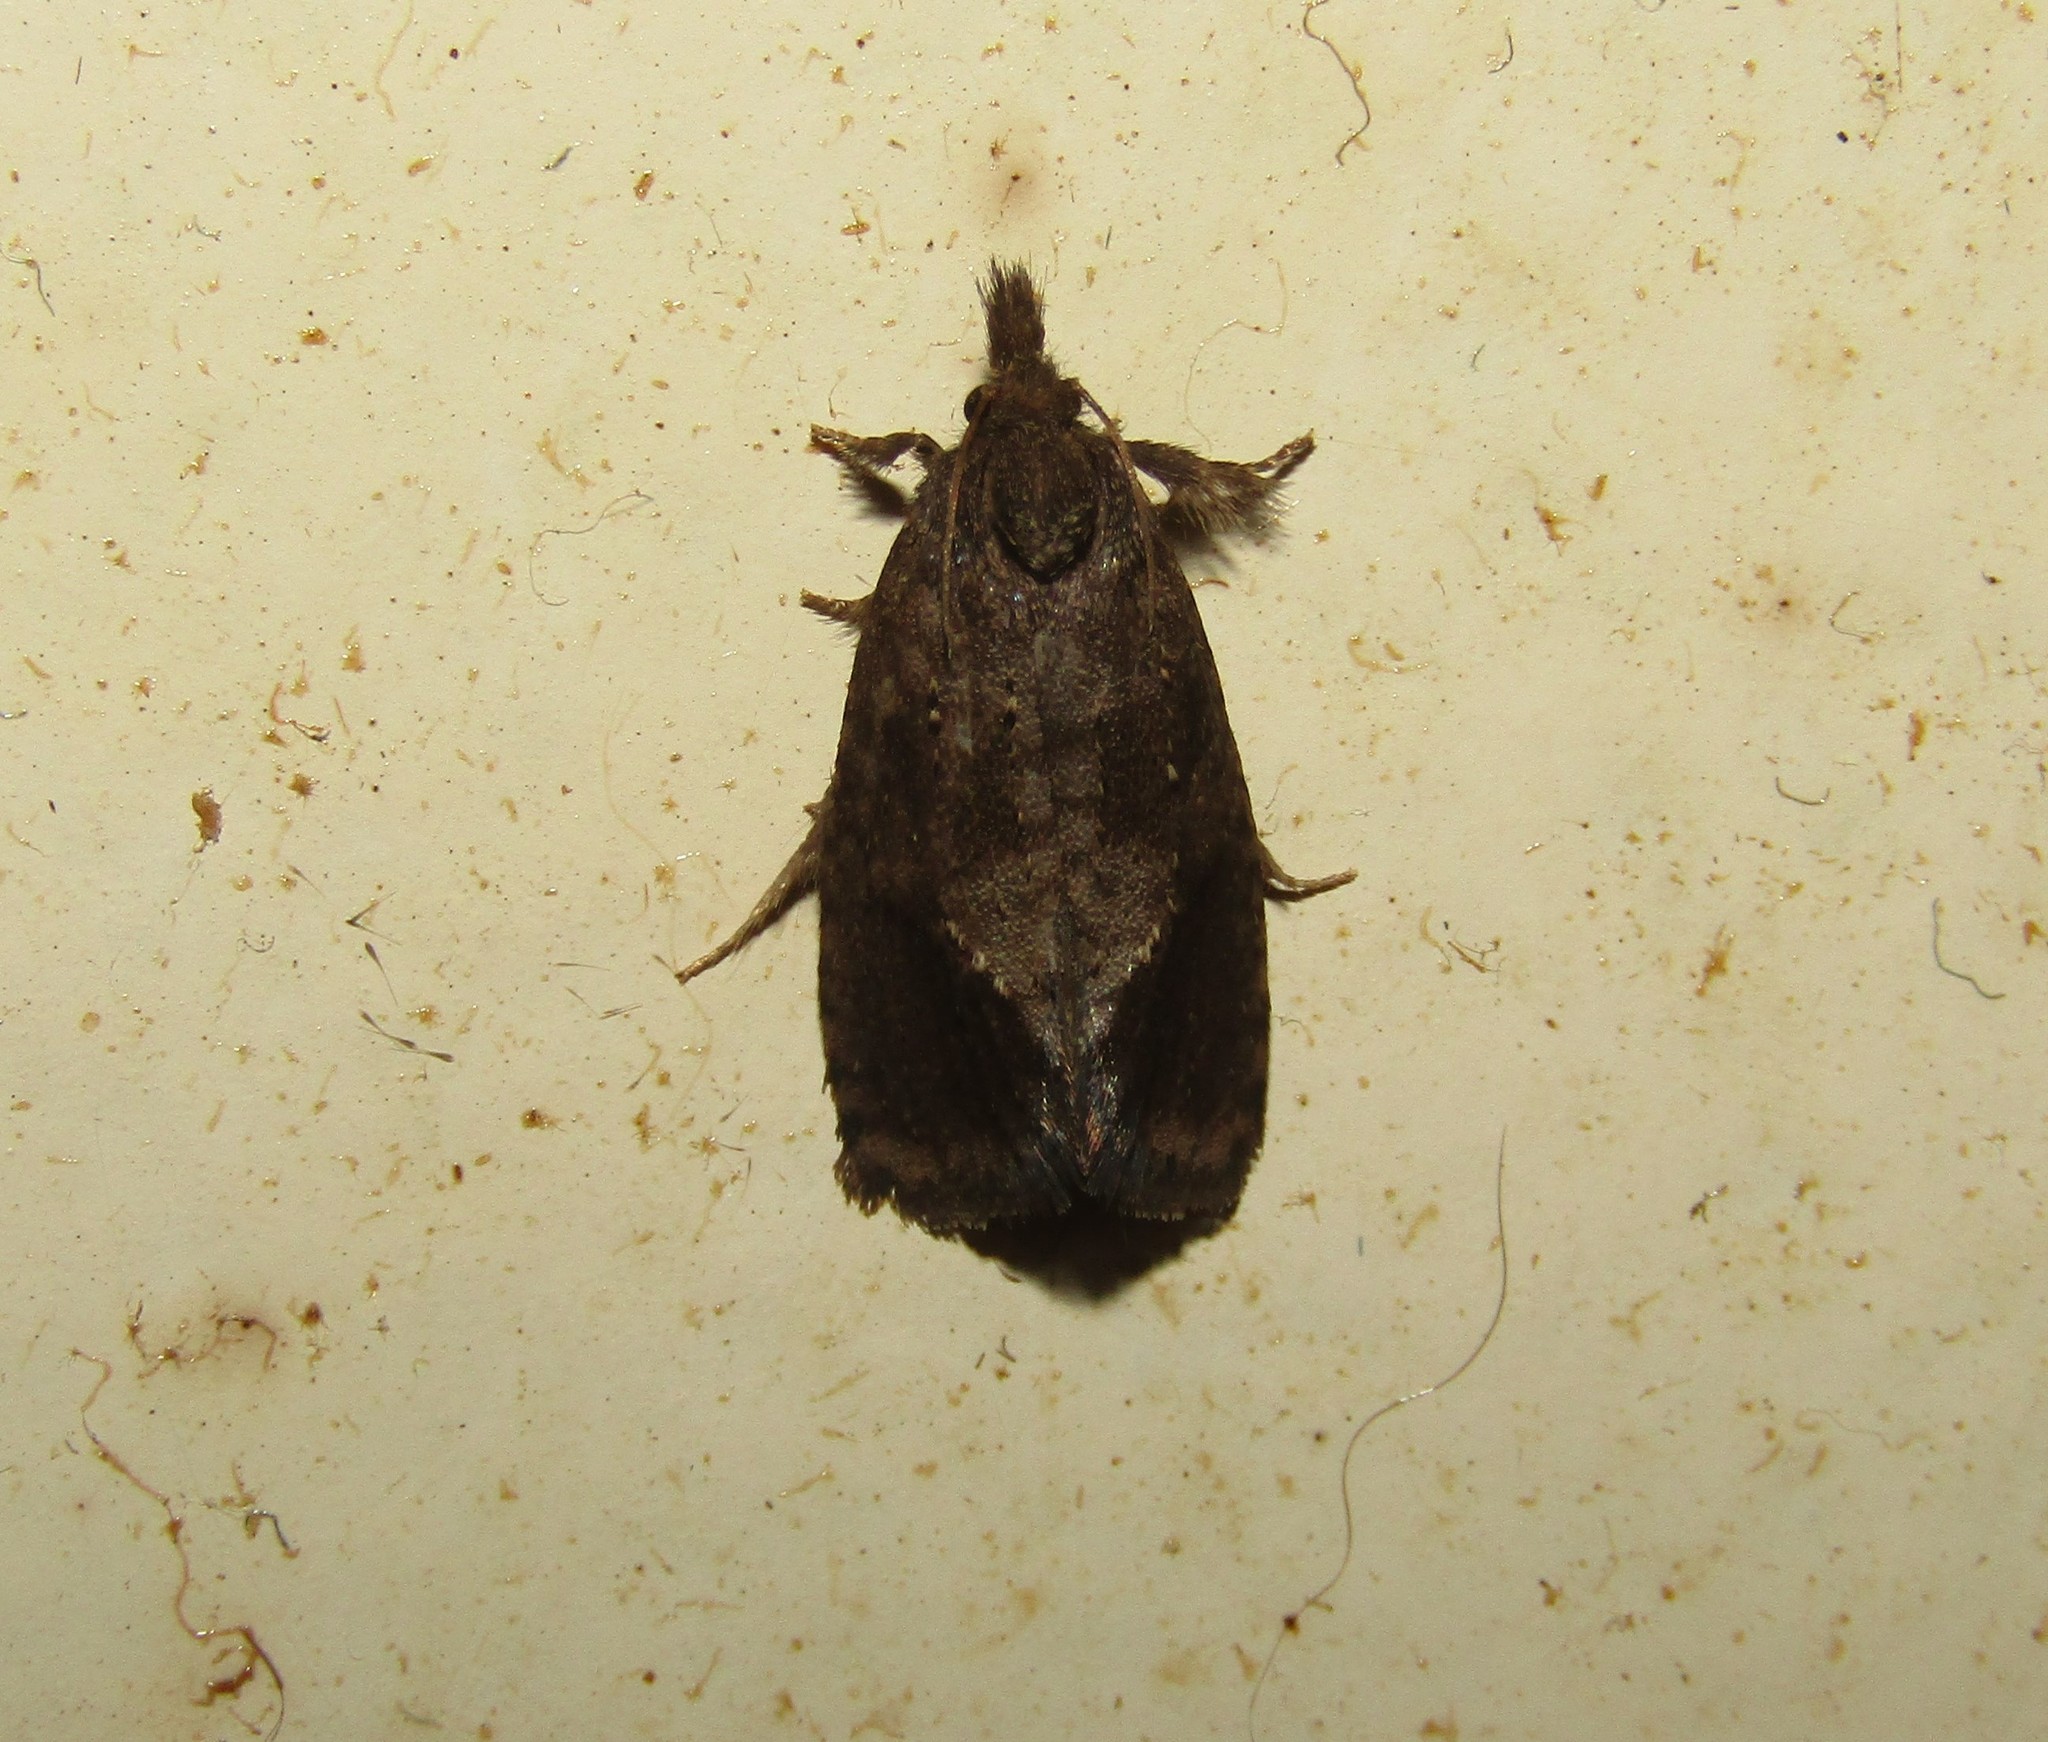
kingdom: Animalia
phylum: Arthropoda
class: Insecta
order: Lepidoptera
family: Tineidae
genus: Acrolophus
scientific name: Acrolophus texanella
